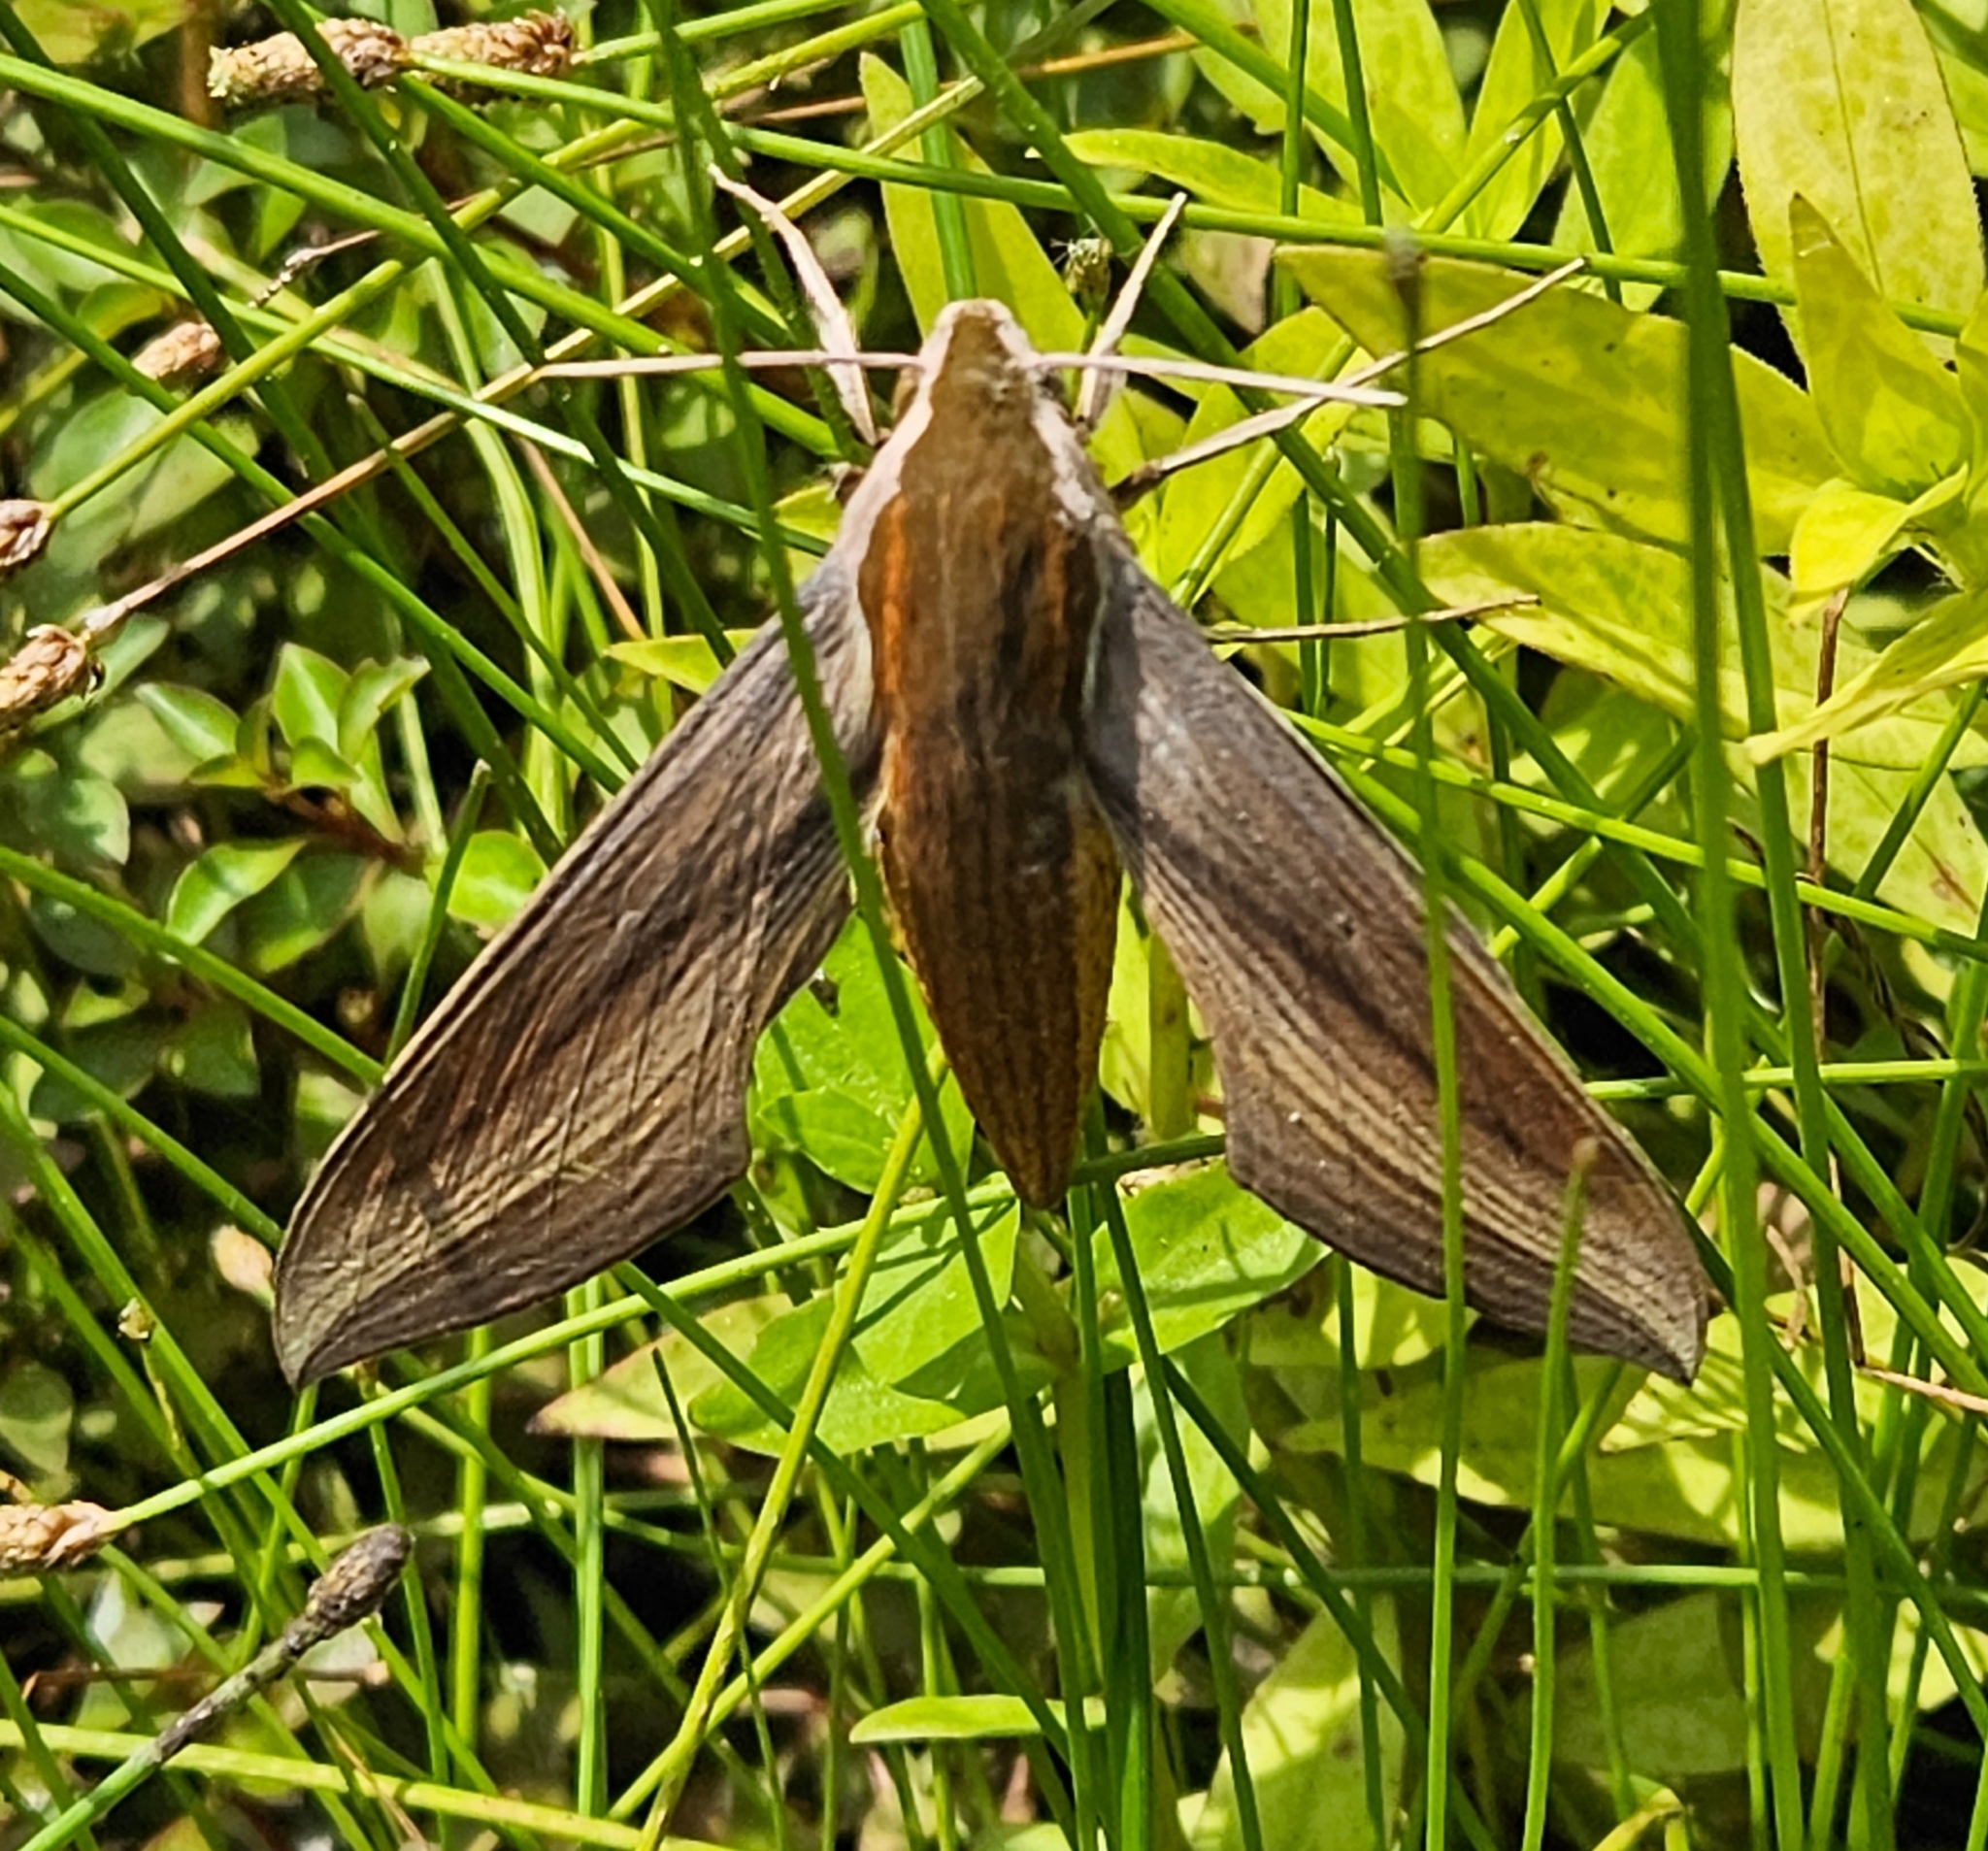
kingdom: Animalia
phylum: Arthropoda
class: Insecta
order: Lepidoptera
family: Sphingidae
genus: Xylophanes
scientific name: Xylophanes tersa
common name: Tersa sphinx
